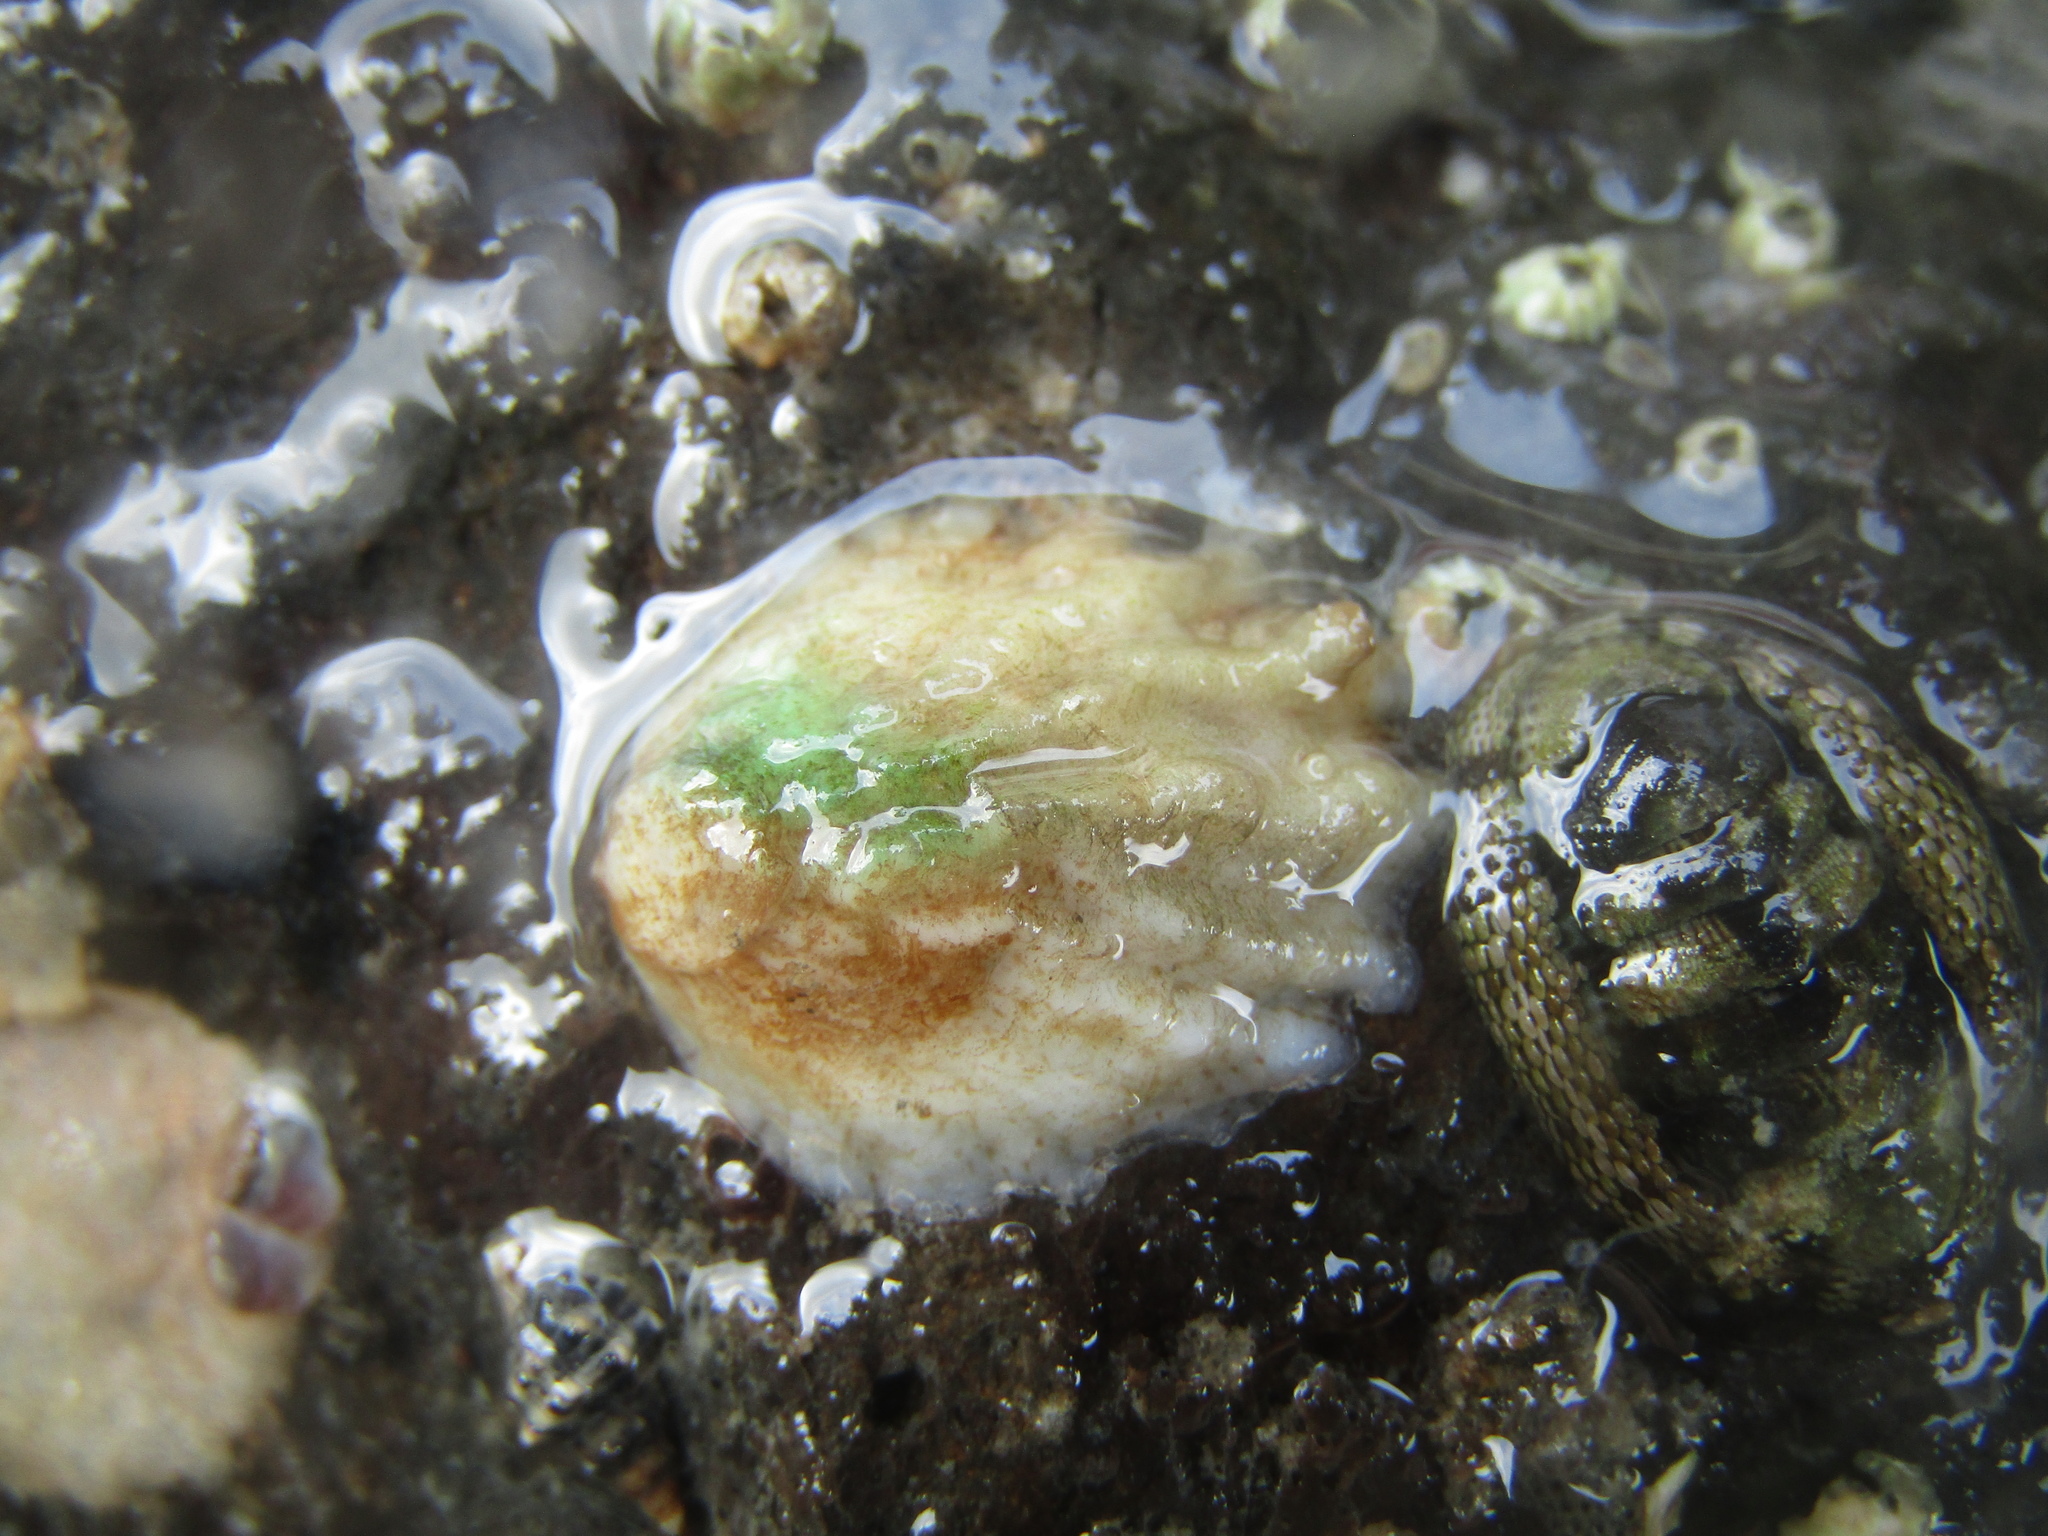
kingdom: Animalia
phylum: Mollusca
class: Gastropoda
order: Littorinimorpha
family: Calyptraeidae
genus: Maoricrypta
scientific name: Maoricrypta costata
